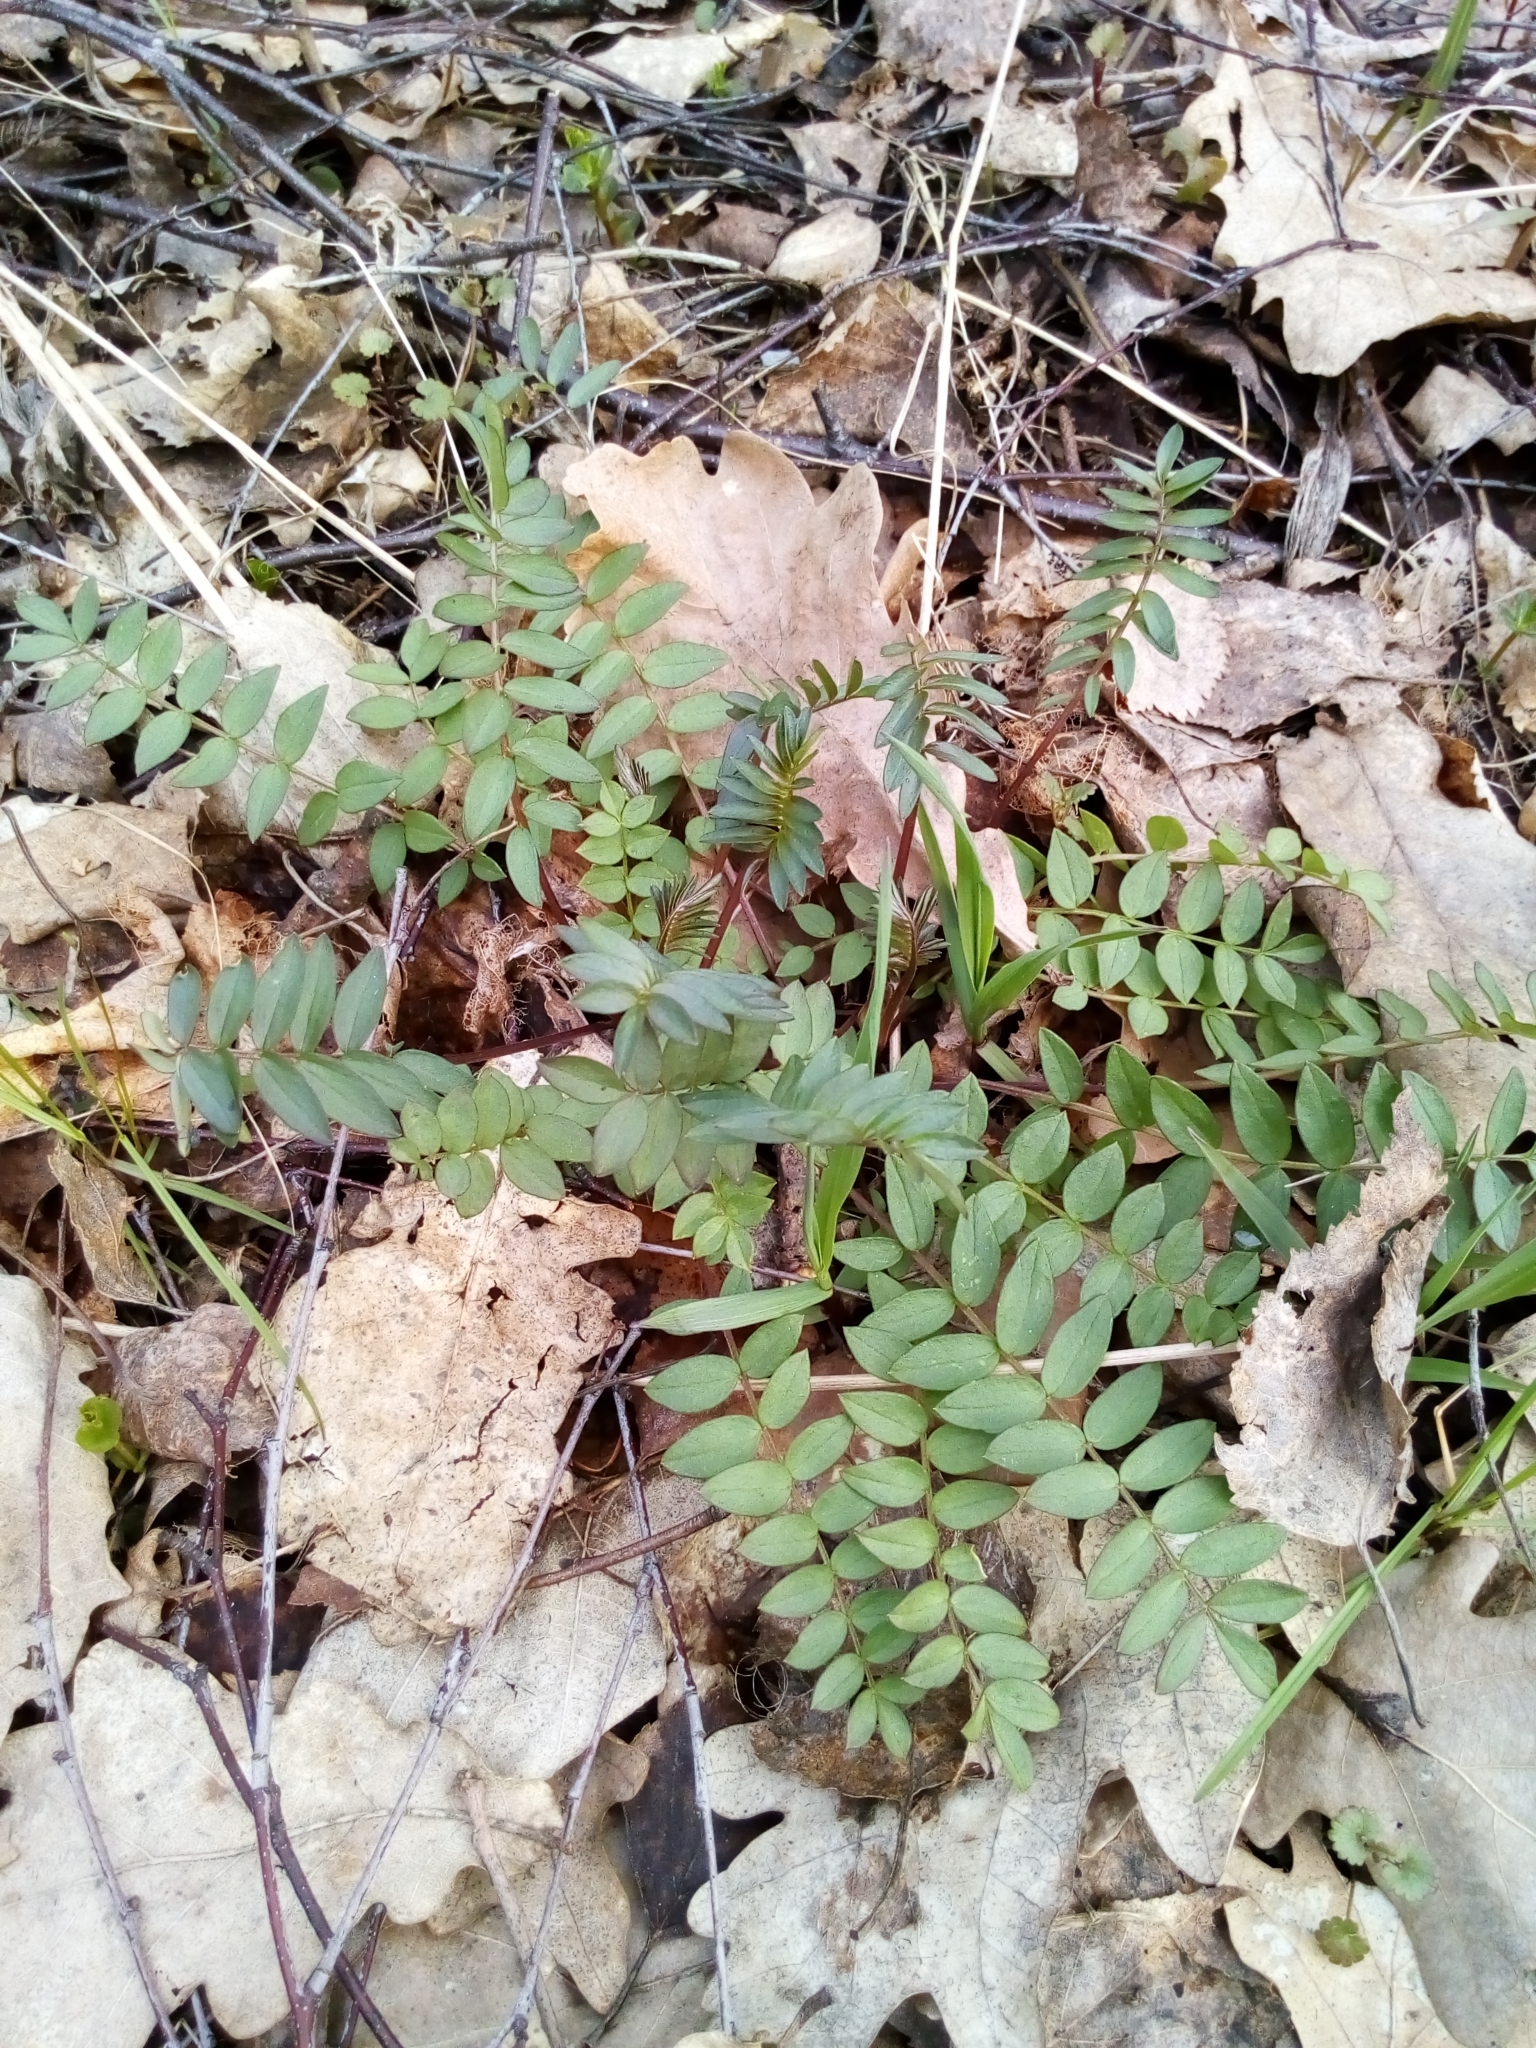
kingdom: Plantae
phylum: Tracheophyta
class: Magnoliopsida
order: Ericales
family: Polemoniaceae
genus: Polemonium
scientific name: Polemonium caeruleum
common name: Jacob's-ladder
